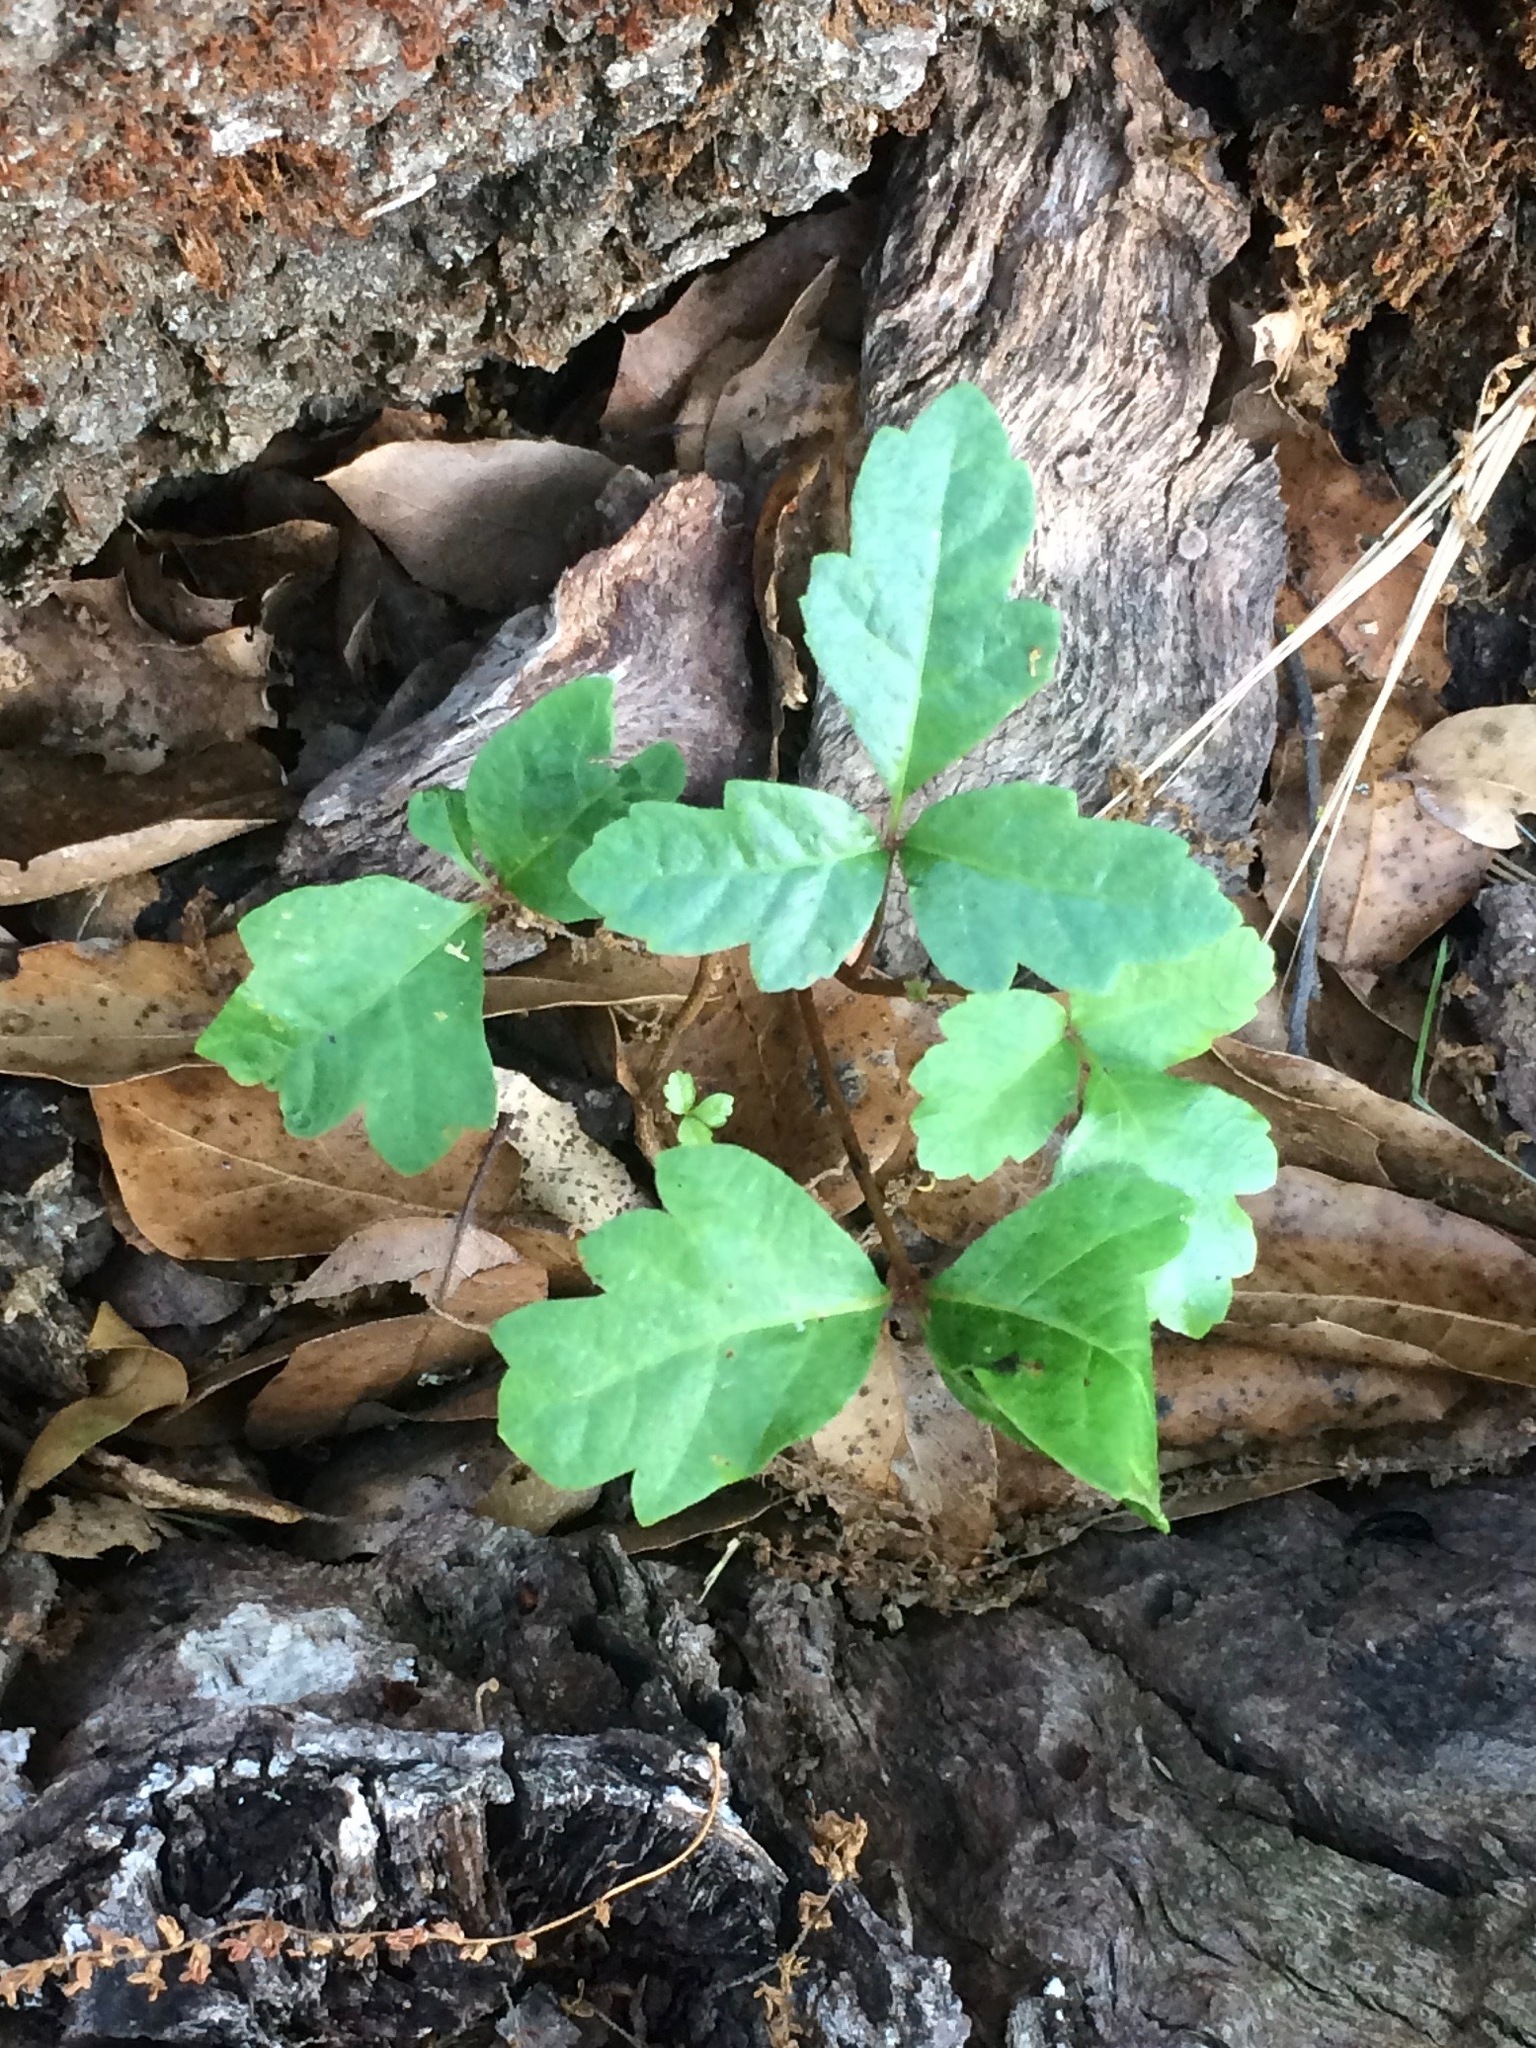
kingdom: Plantae
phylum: Tracheophyta
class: Magnoliopsida
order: Sapindales
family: Anacardiaceae
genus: Toxicodendron
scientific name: Toxicodendron diversilobum
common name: Pacific poison-oak
